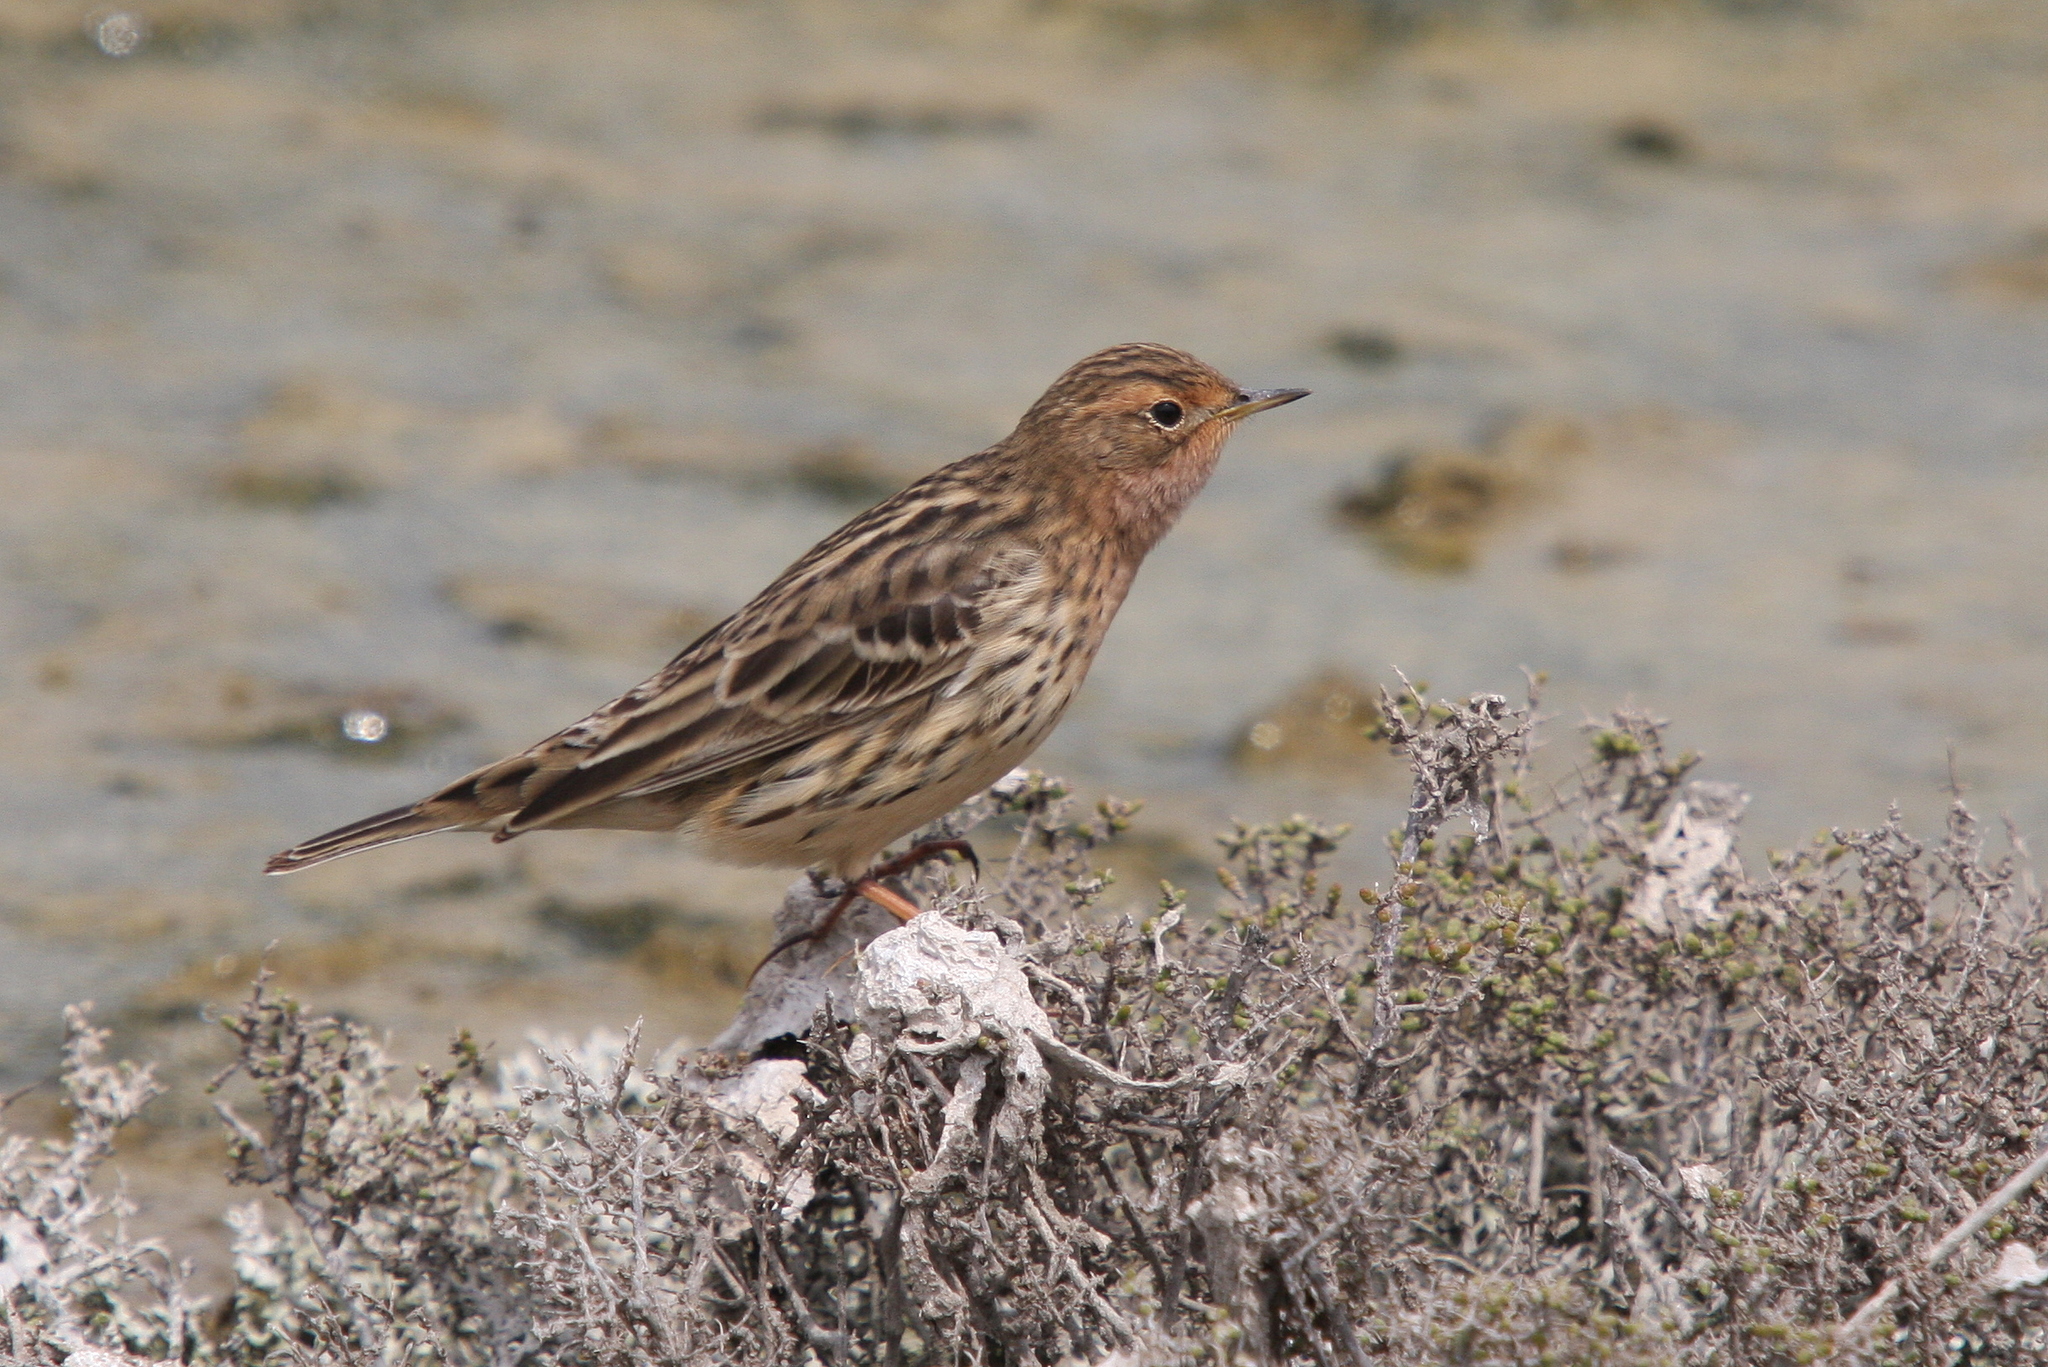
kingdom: Animalia
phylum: Chordata
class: Aves
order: Passeriformes
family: Motacillidae
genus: Anthus
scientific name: Anthus cervinus
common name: Red-throated pipit
